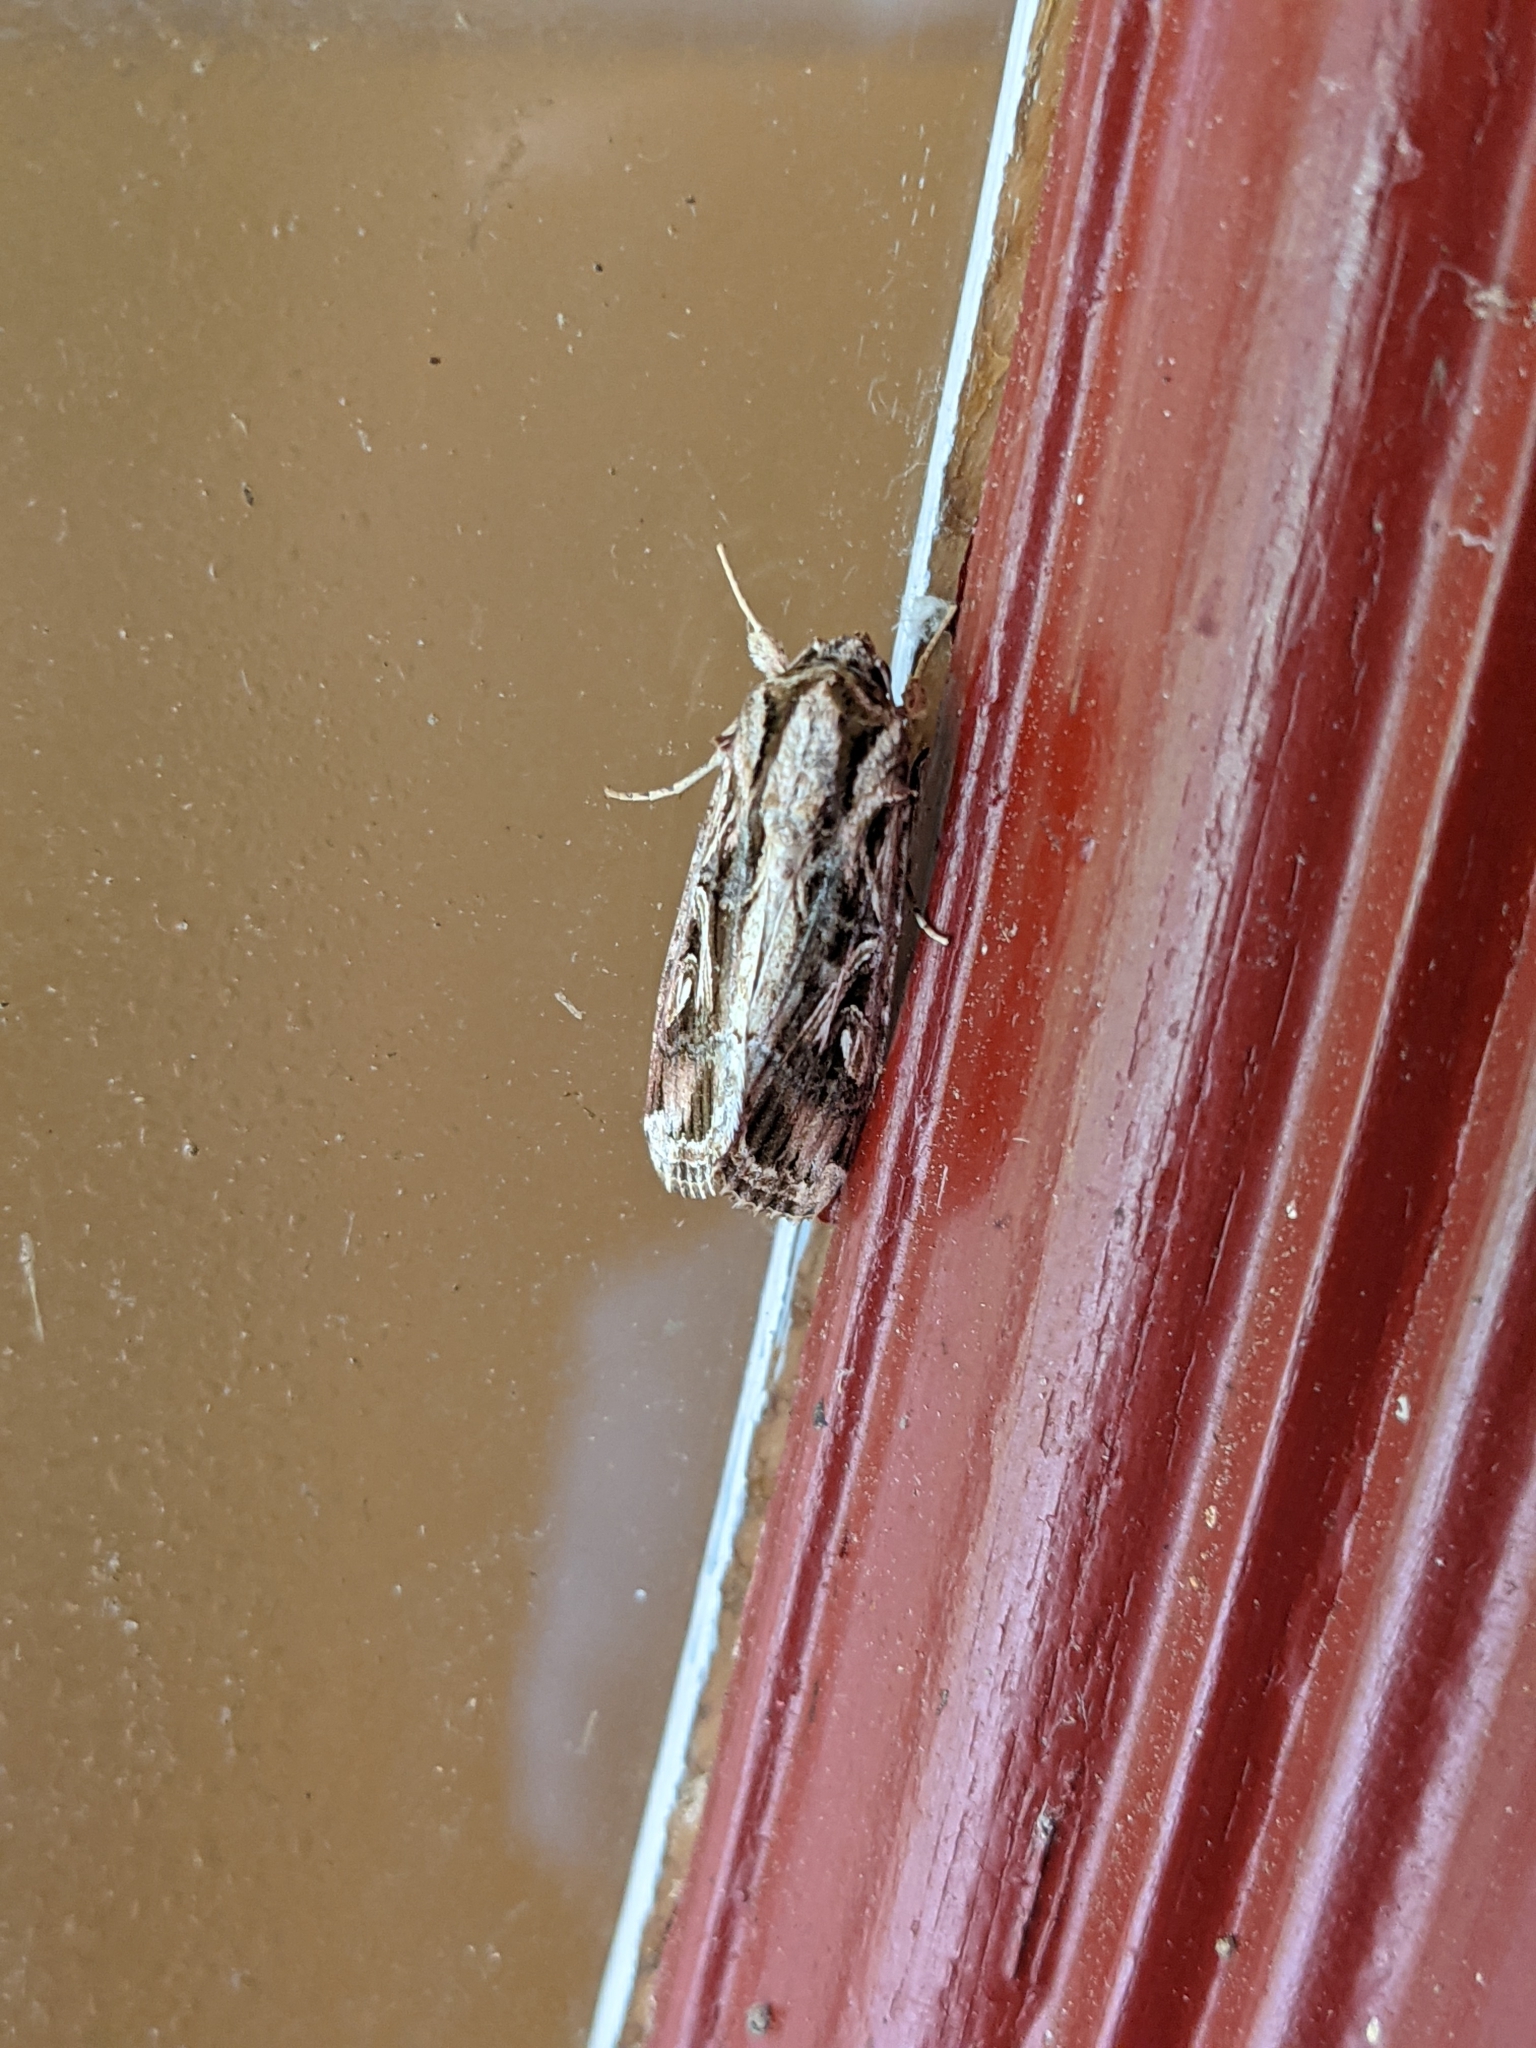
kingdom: Animalia
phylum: Arthropoda
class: Insecta
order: Lepidoptera
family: Noctuidae
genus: Spodoptera
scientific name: Spodoptera dolichos
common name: Sweetpotato armyworm
